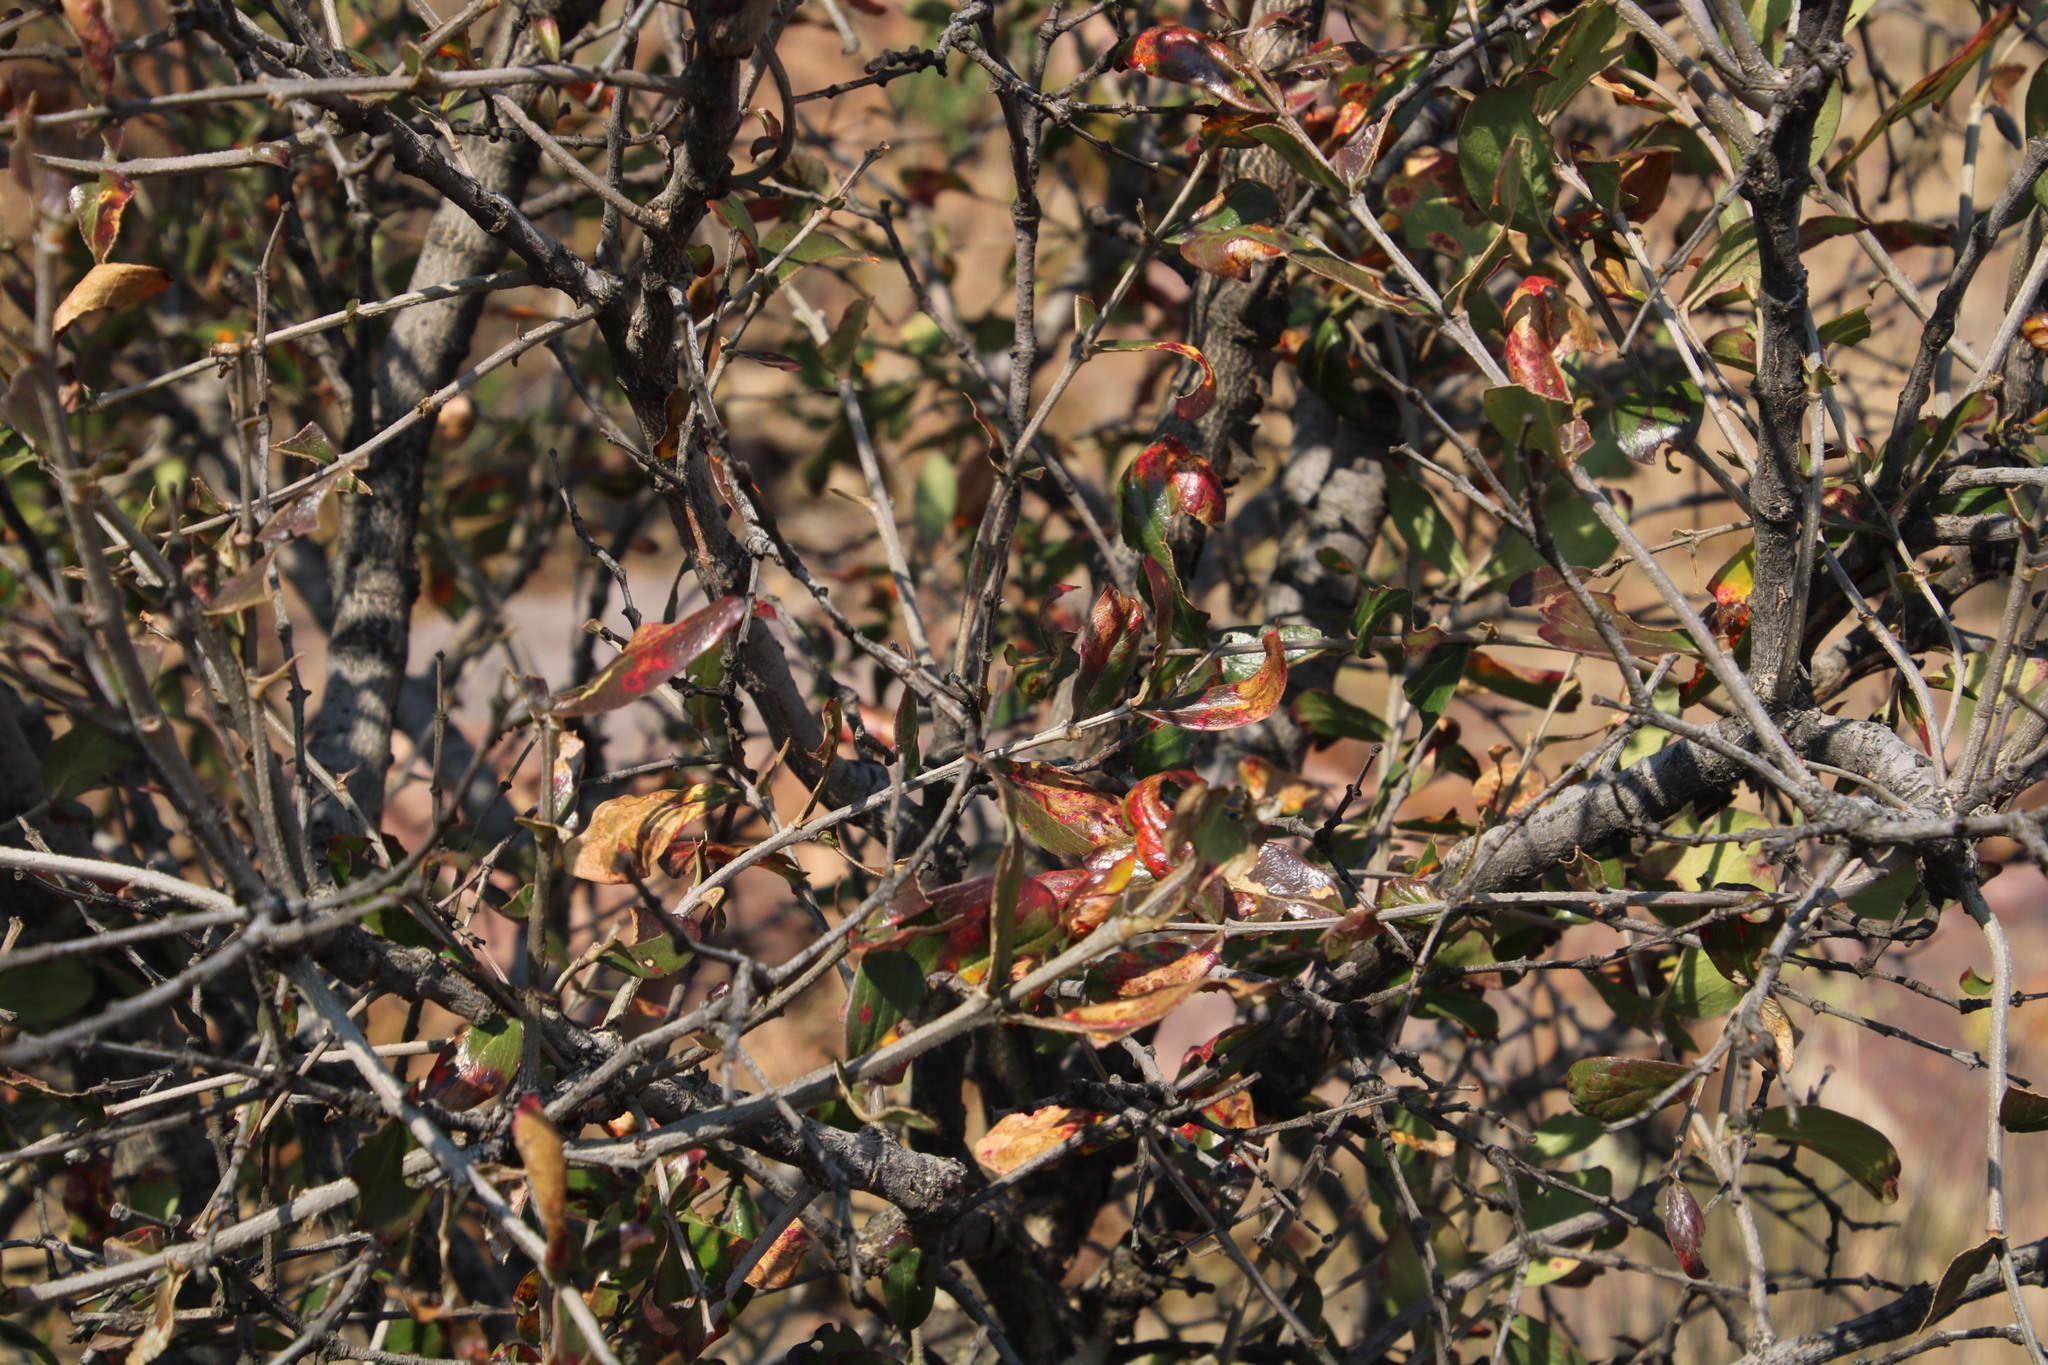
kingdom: Plantae
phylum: Tracheophyta
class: Magnoliopsida
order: Myrtales
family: Penaeaceae
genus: Olinia
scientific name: Olinia emarginata
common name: Mountain hard pear
